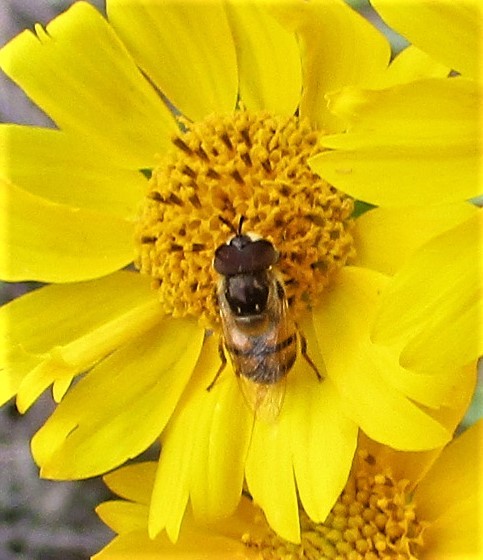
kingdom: Animalia
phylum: Arthropoda
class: Insecta
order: Diptera
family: Syrphidae
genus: Copestylum
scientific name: Copestylum marginatum
